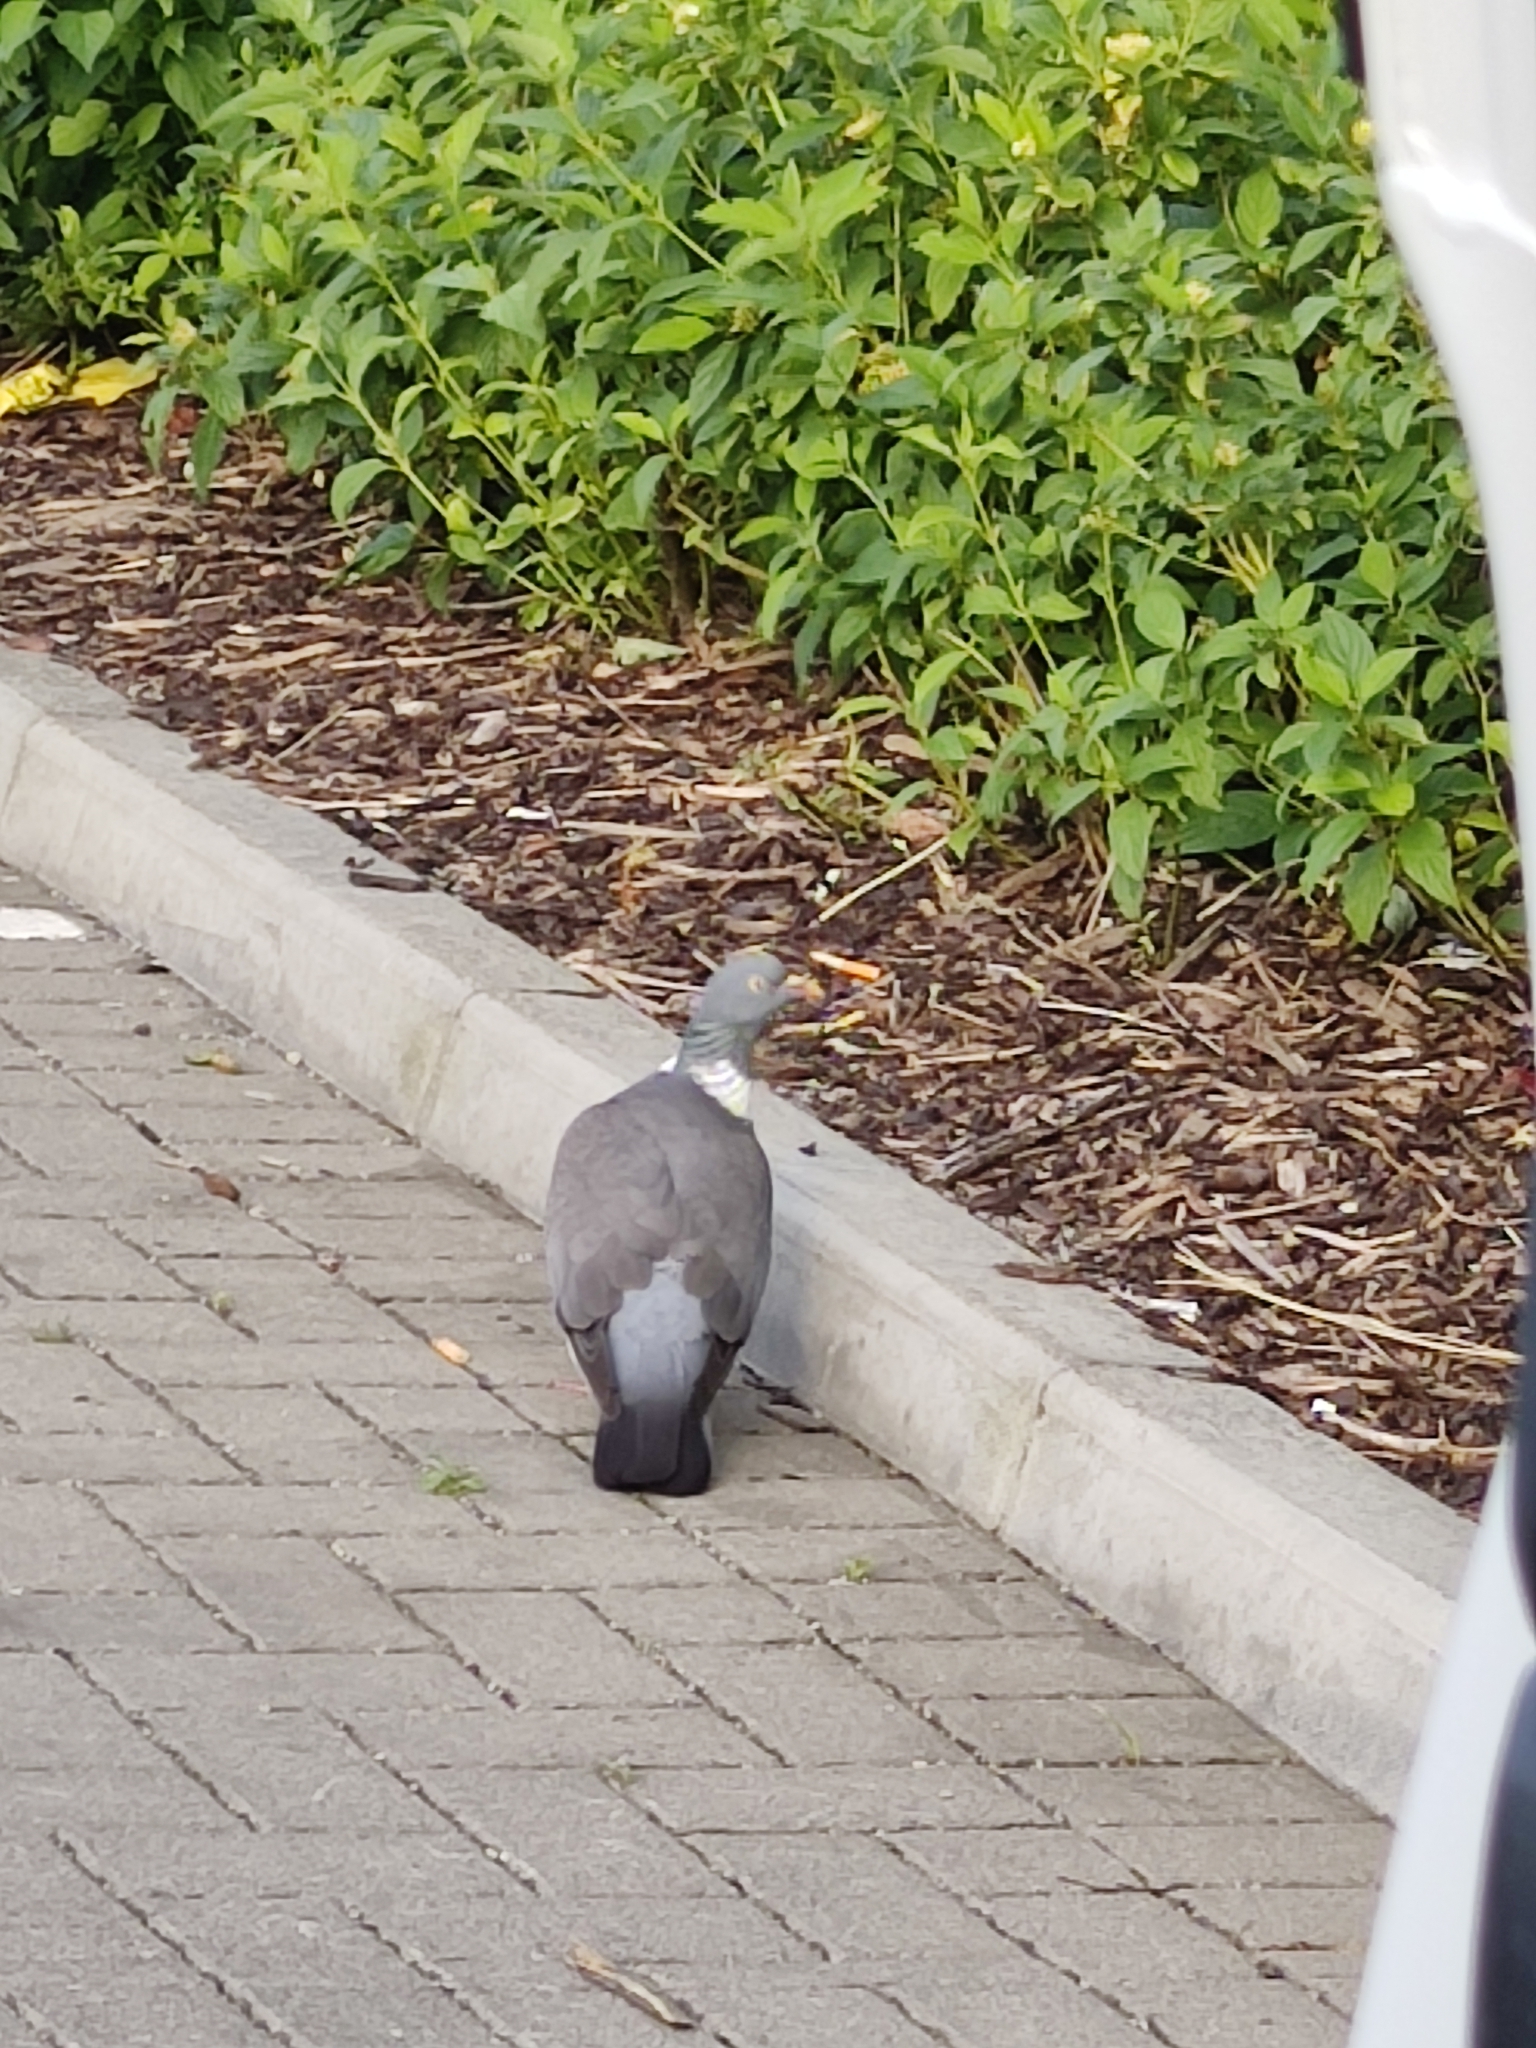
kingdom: Animalia
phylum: Chordata
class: Aves
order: Columbiformes
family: Columbidae
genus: Columba
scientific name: Columba palumbus
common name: Common wood pigeon
